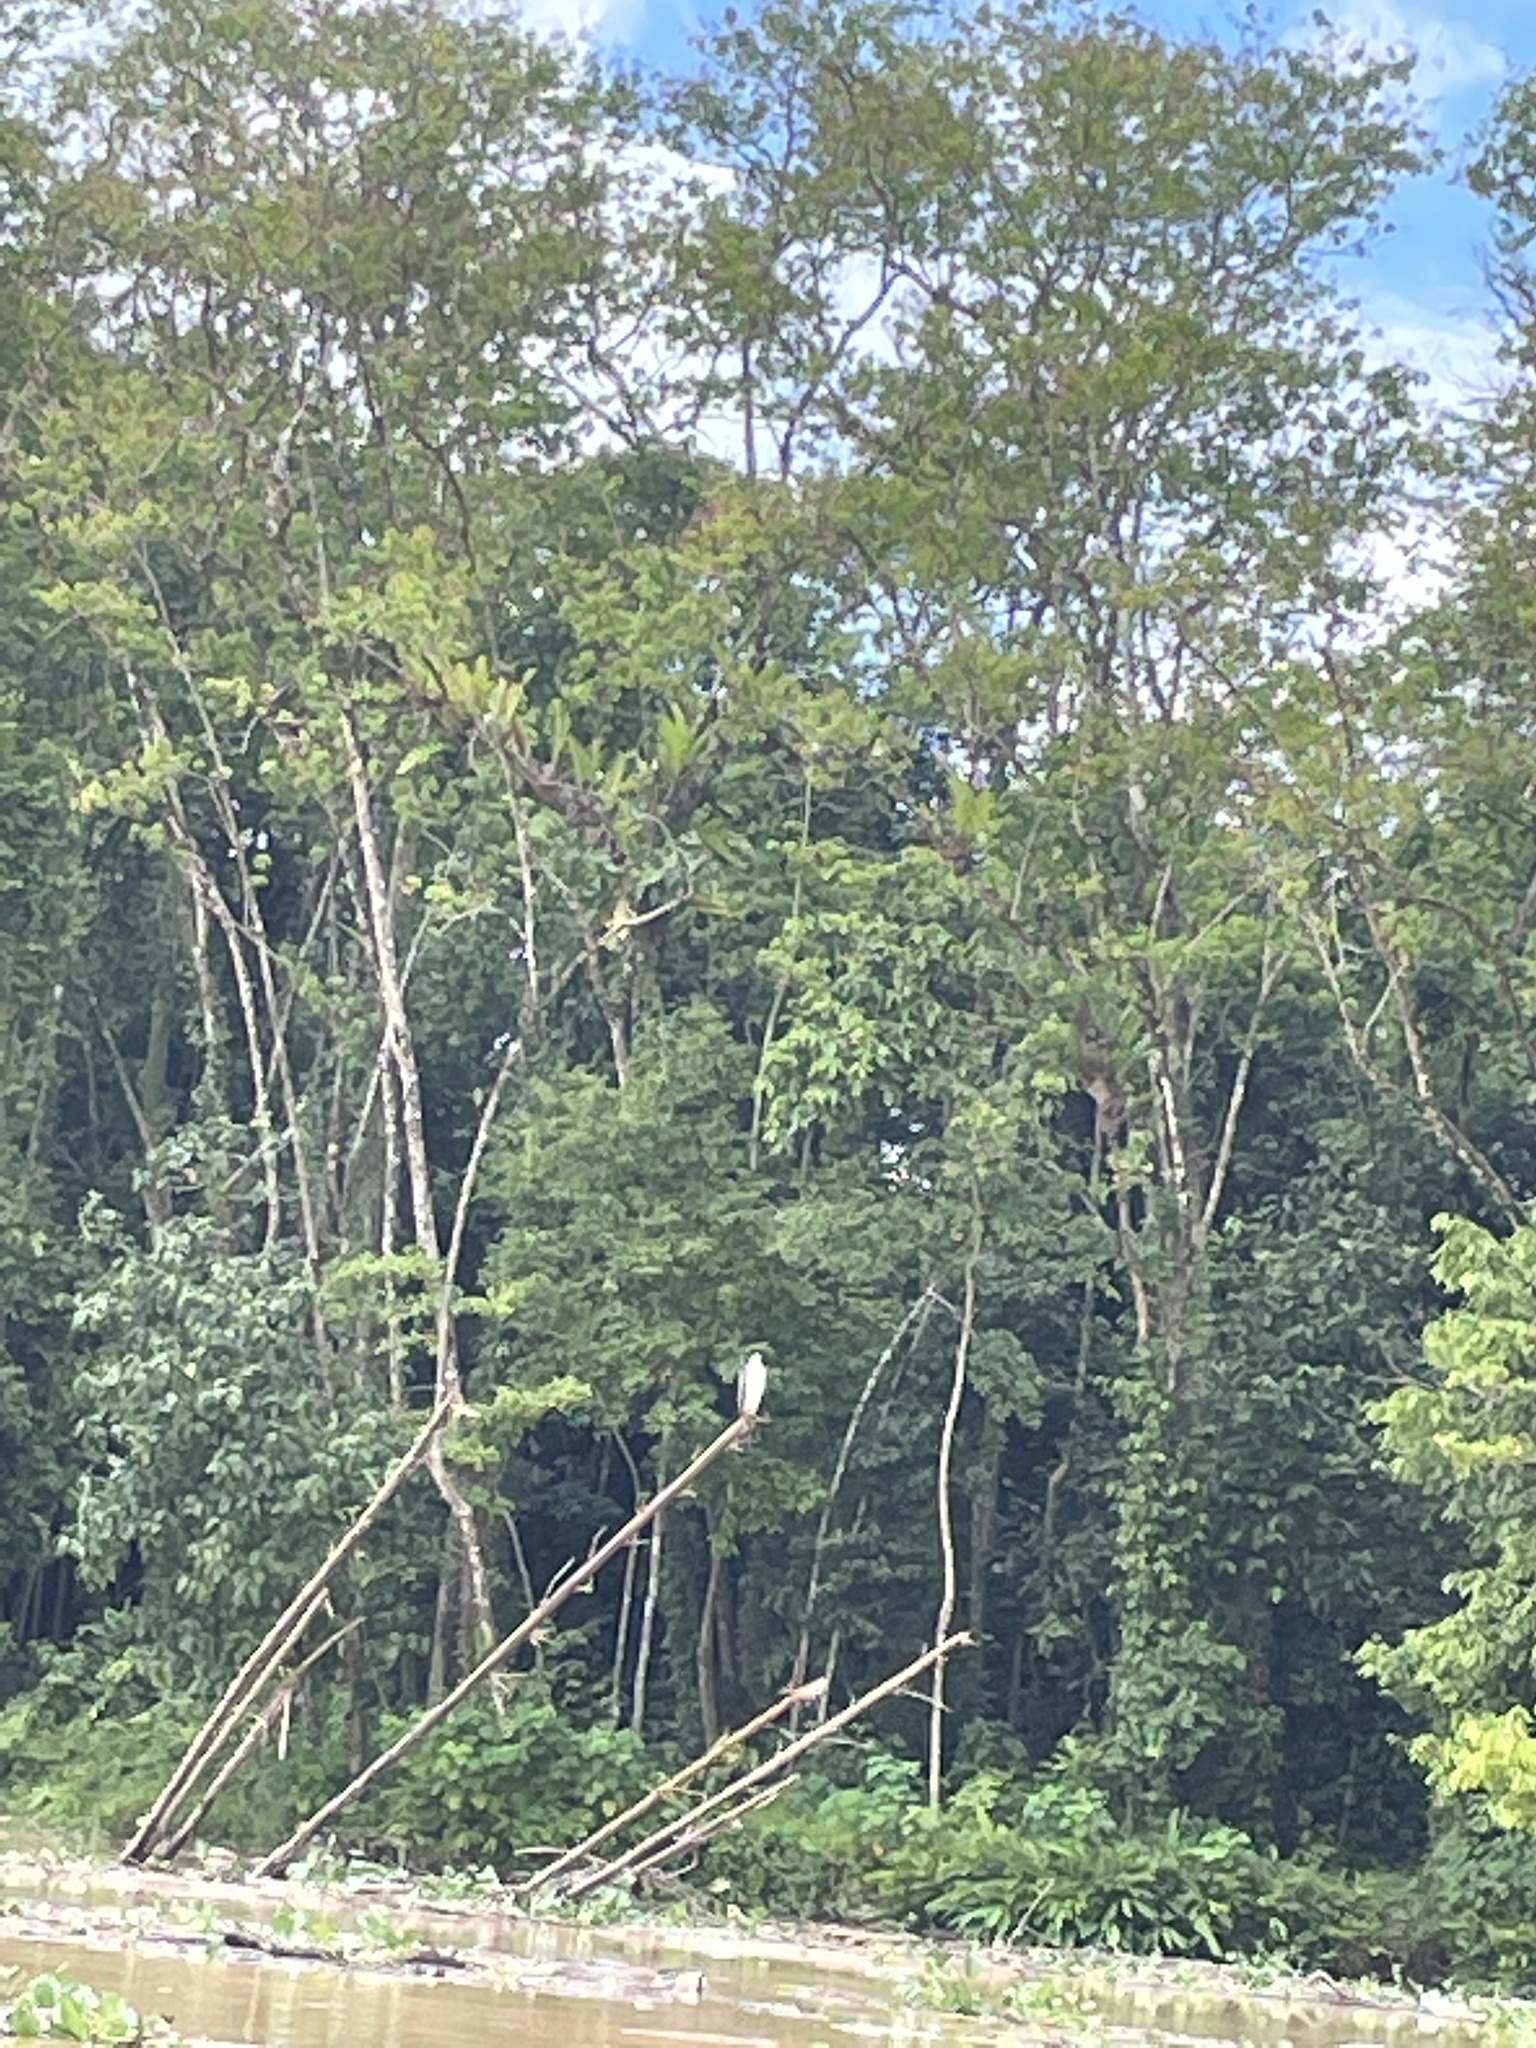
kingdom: Animalia
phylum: Chordata
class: Aves
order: Accipitriformes
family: Accipitridae
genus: Haliaeetus
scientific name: Haliaeetus leucogaster
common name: White-bellied sea eagle
